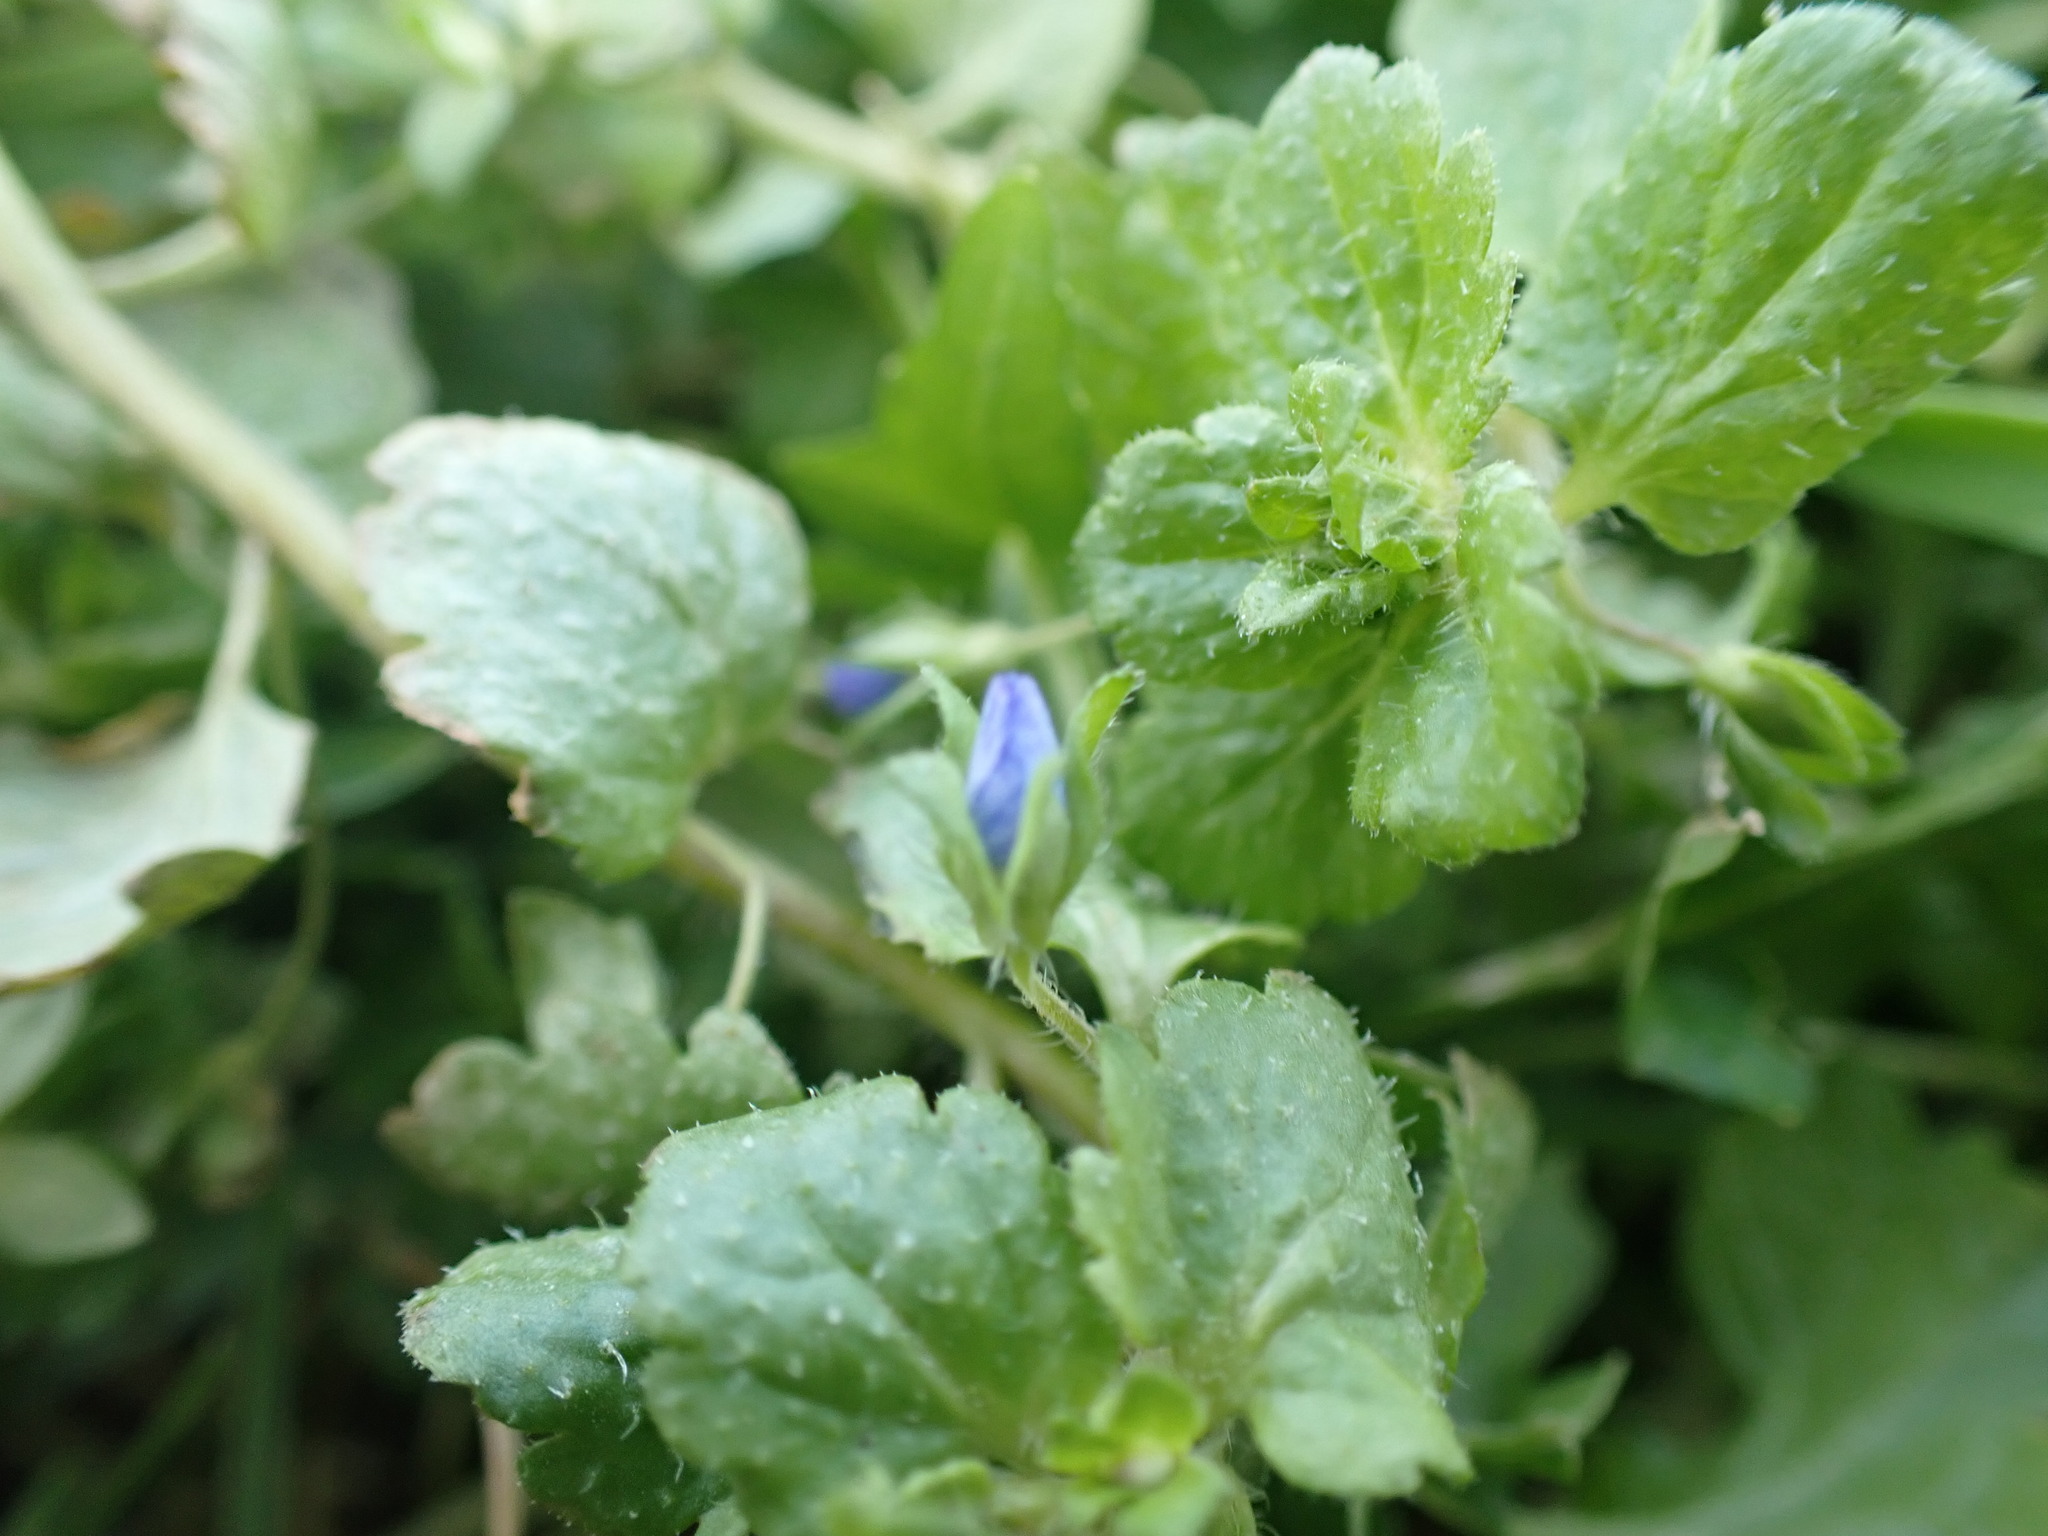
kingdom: Plantae
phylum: Tracheophyta
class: Magnoliopsida
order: Lamiales
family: Plantaginaceae
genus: Veronica
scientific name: Veronica persica
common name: Common field-speedwell
